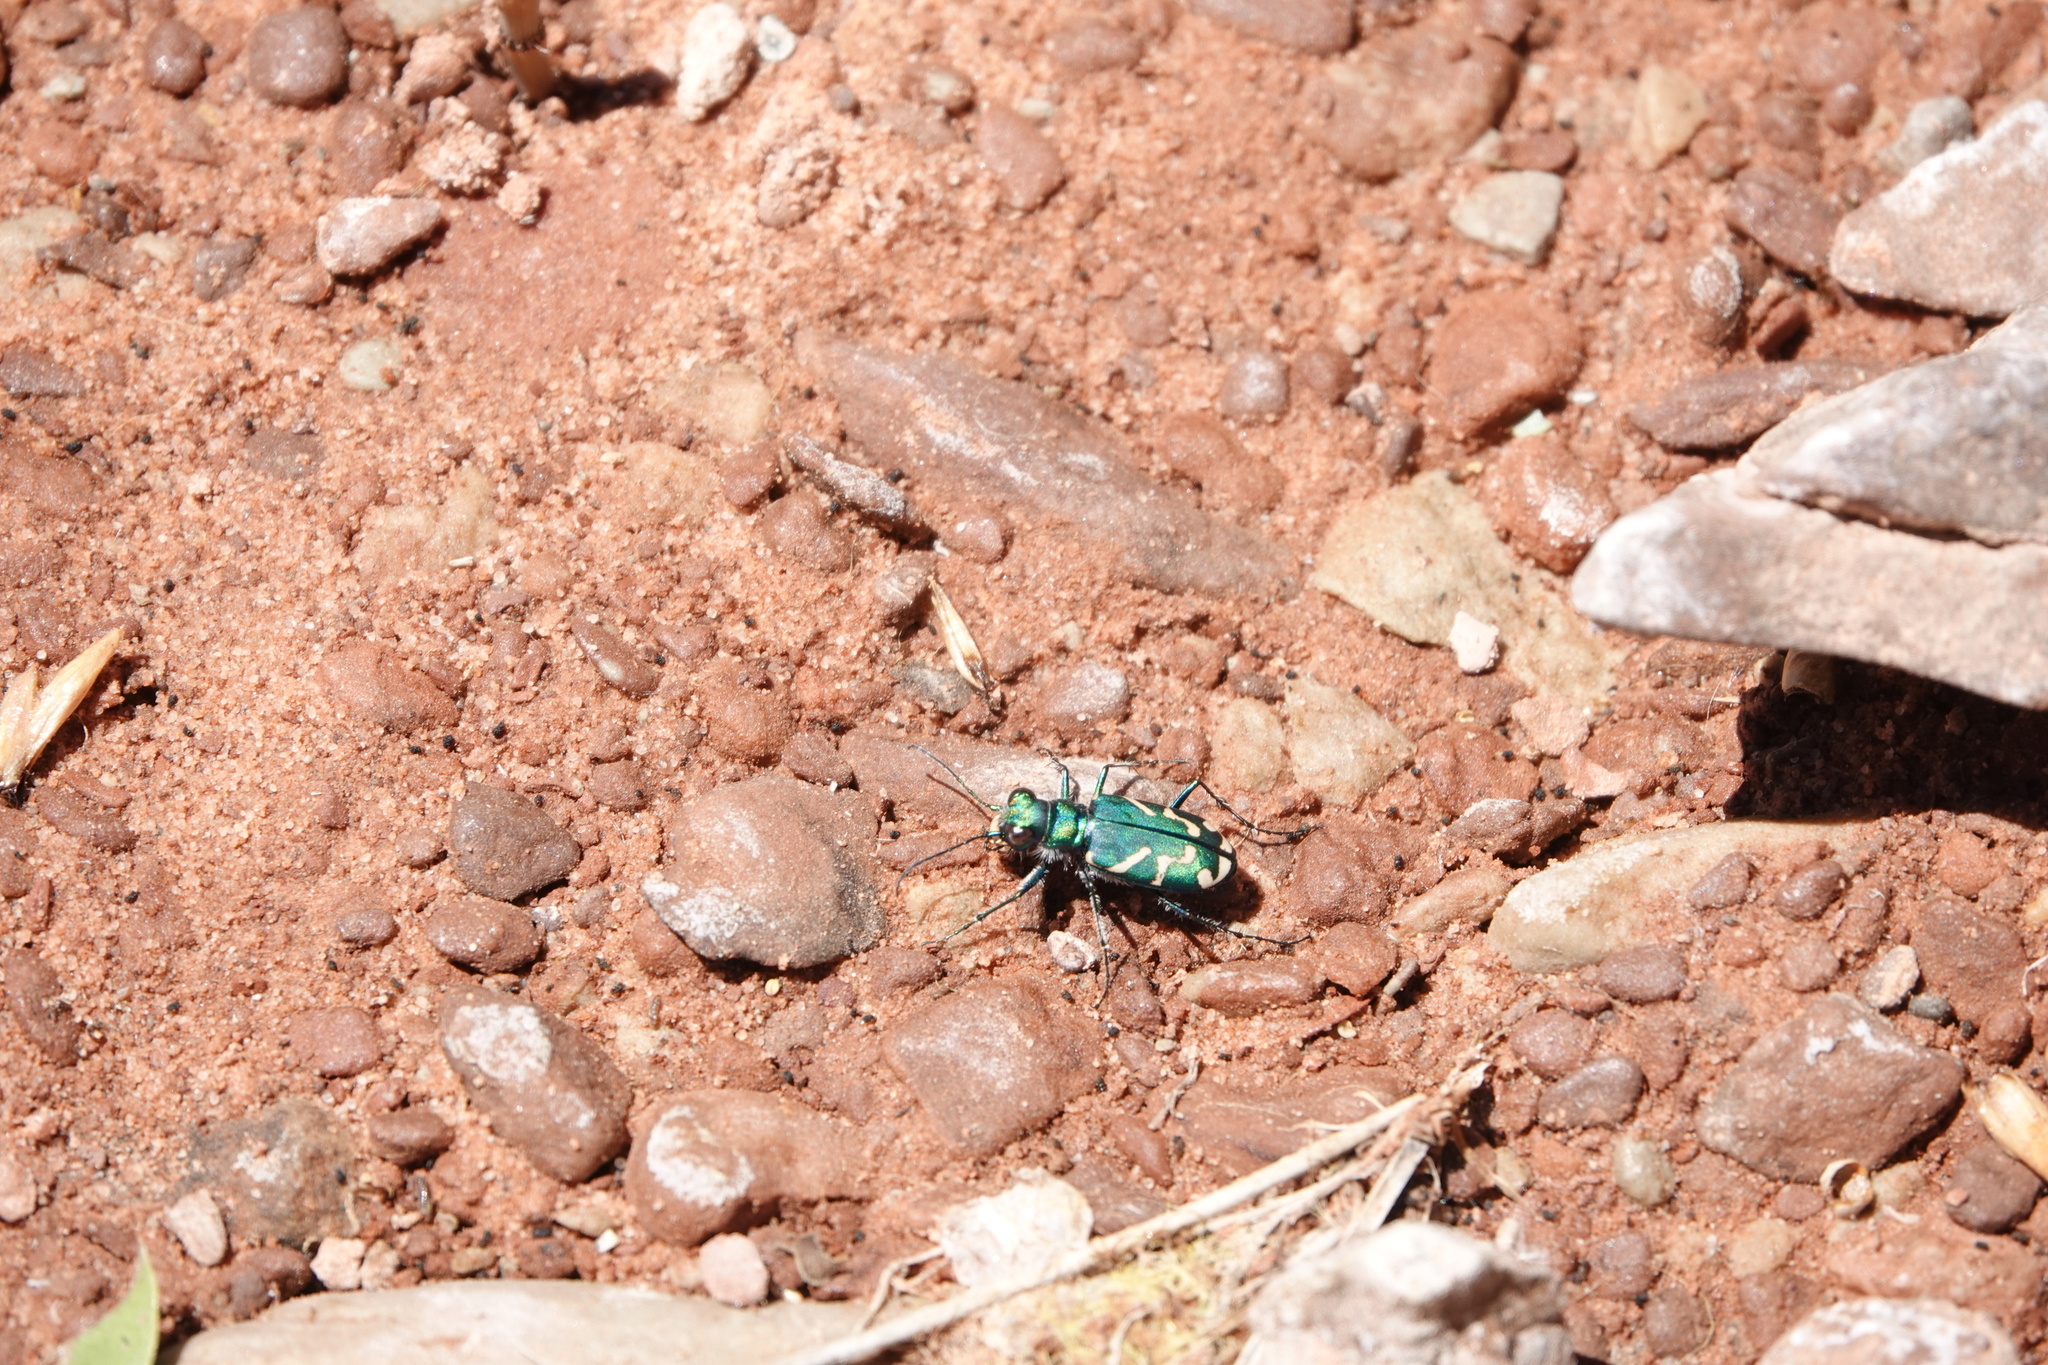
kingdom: Animalia
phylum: Arthropoda
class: Insecta
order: Coleoptera
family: Carabidae
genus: Cicindela
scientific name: Cicindela tranquebarica
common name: Oblique-lined tiger beetle
